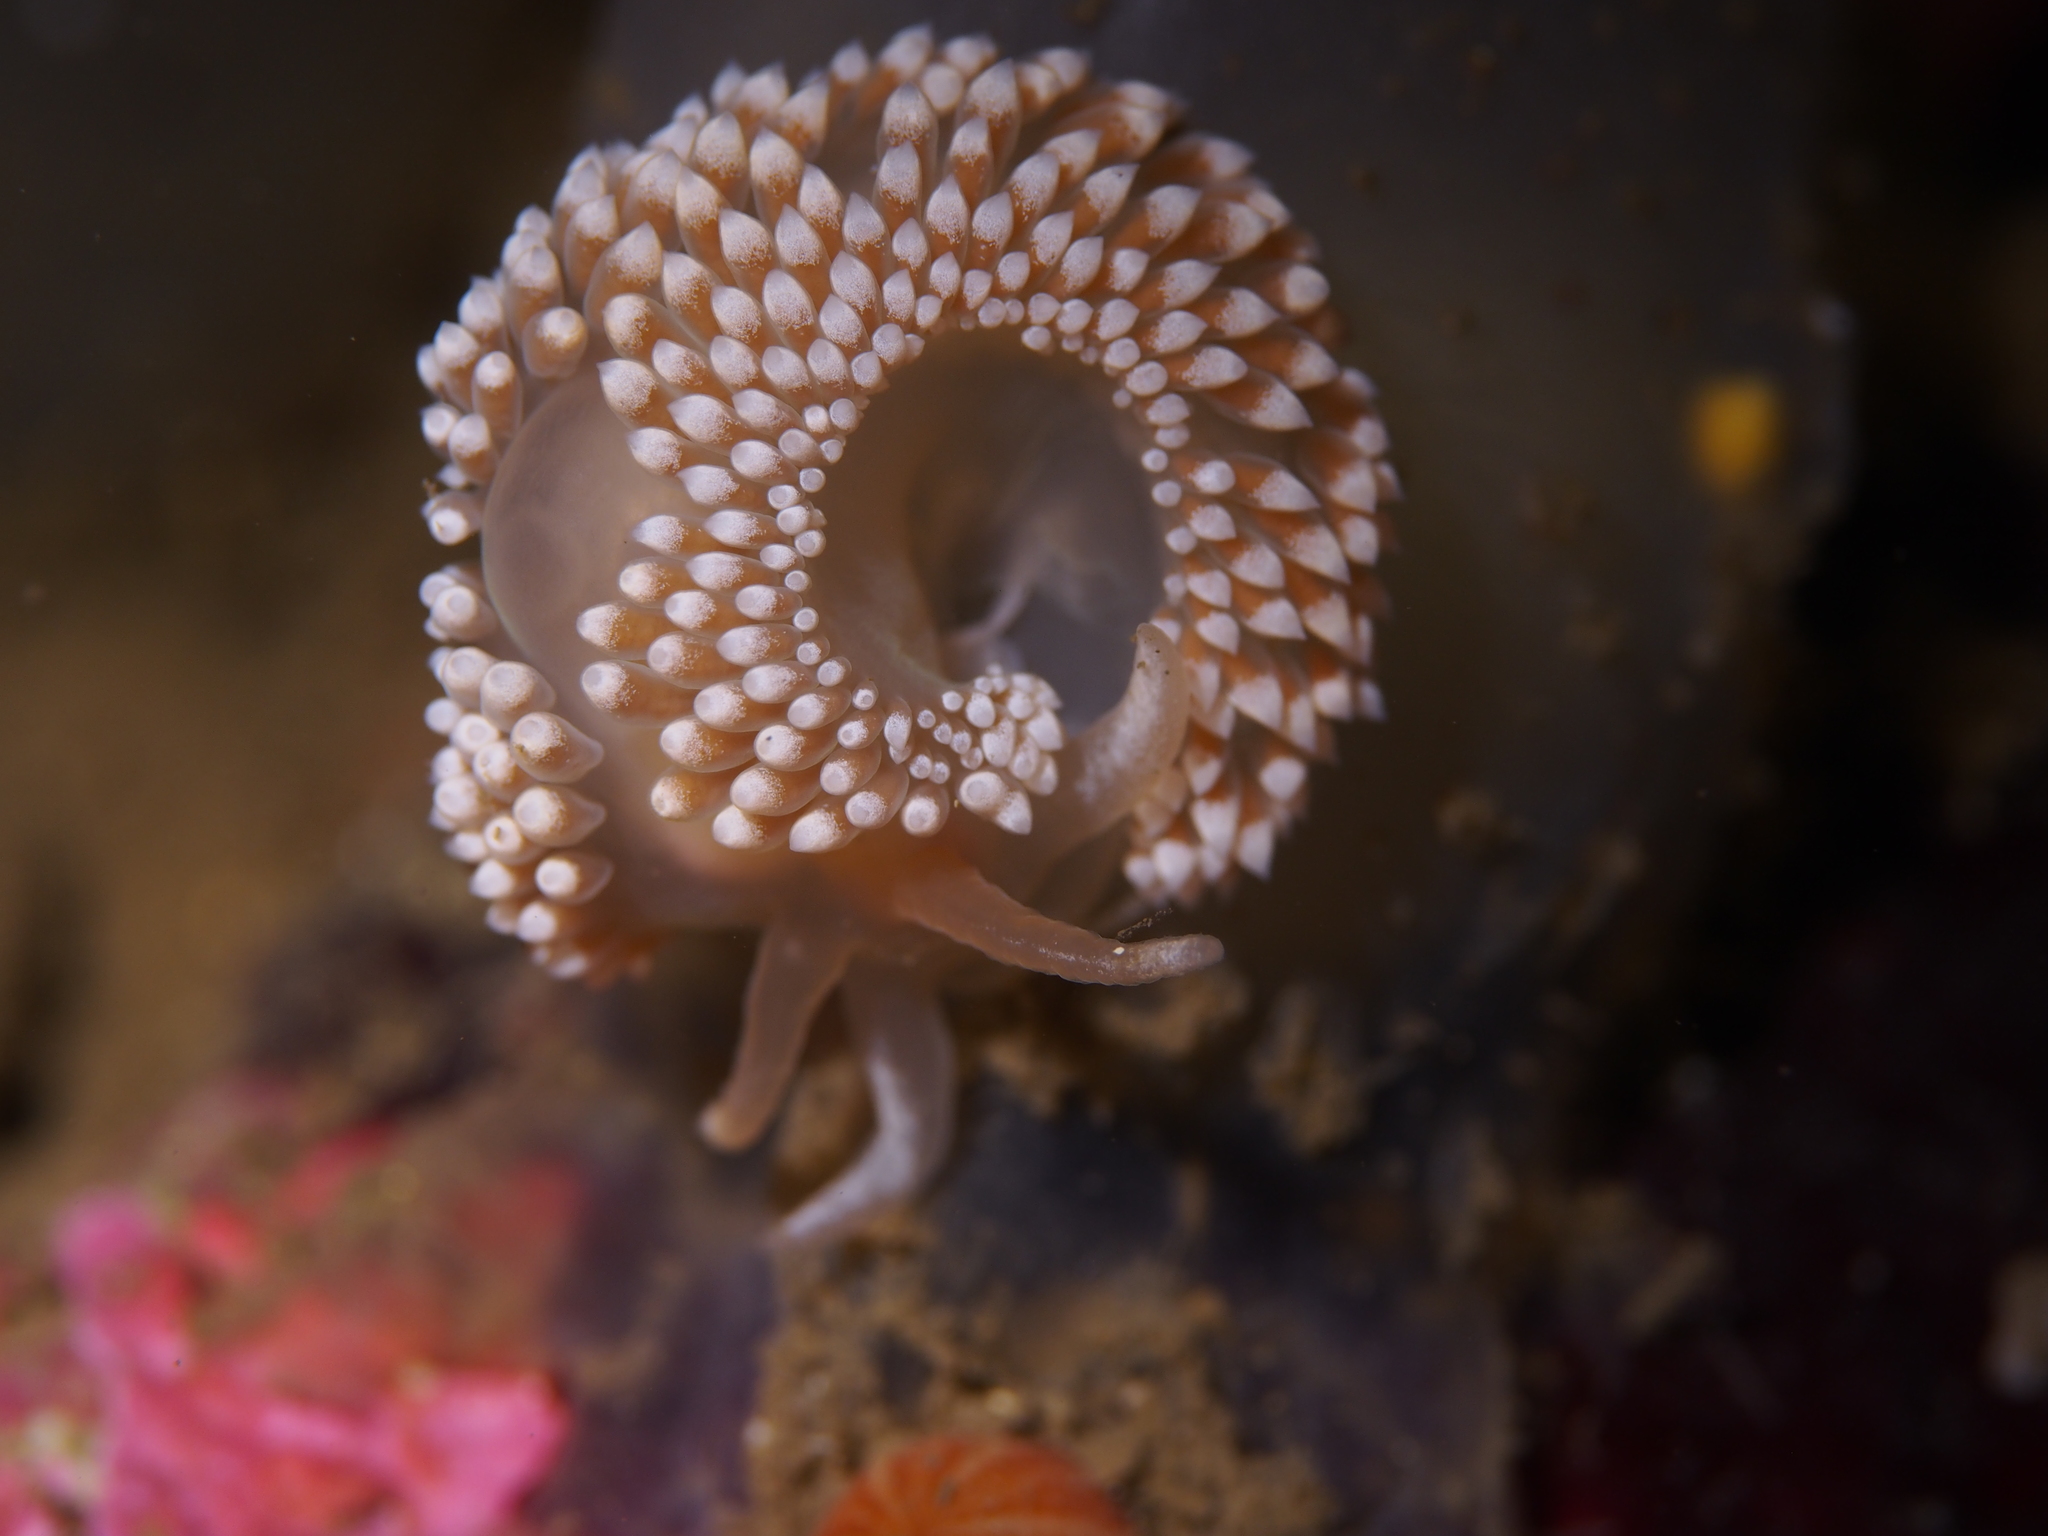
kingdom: Animalia
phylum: Mollusca
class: Gastropoda
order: Nudibranchia
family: Coryphellidae
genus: Coryphella
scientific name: Coryphella verrucosa
